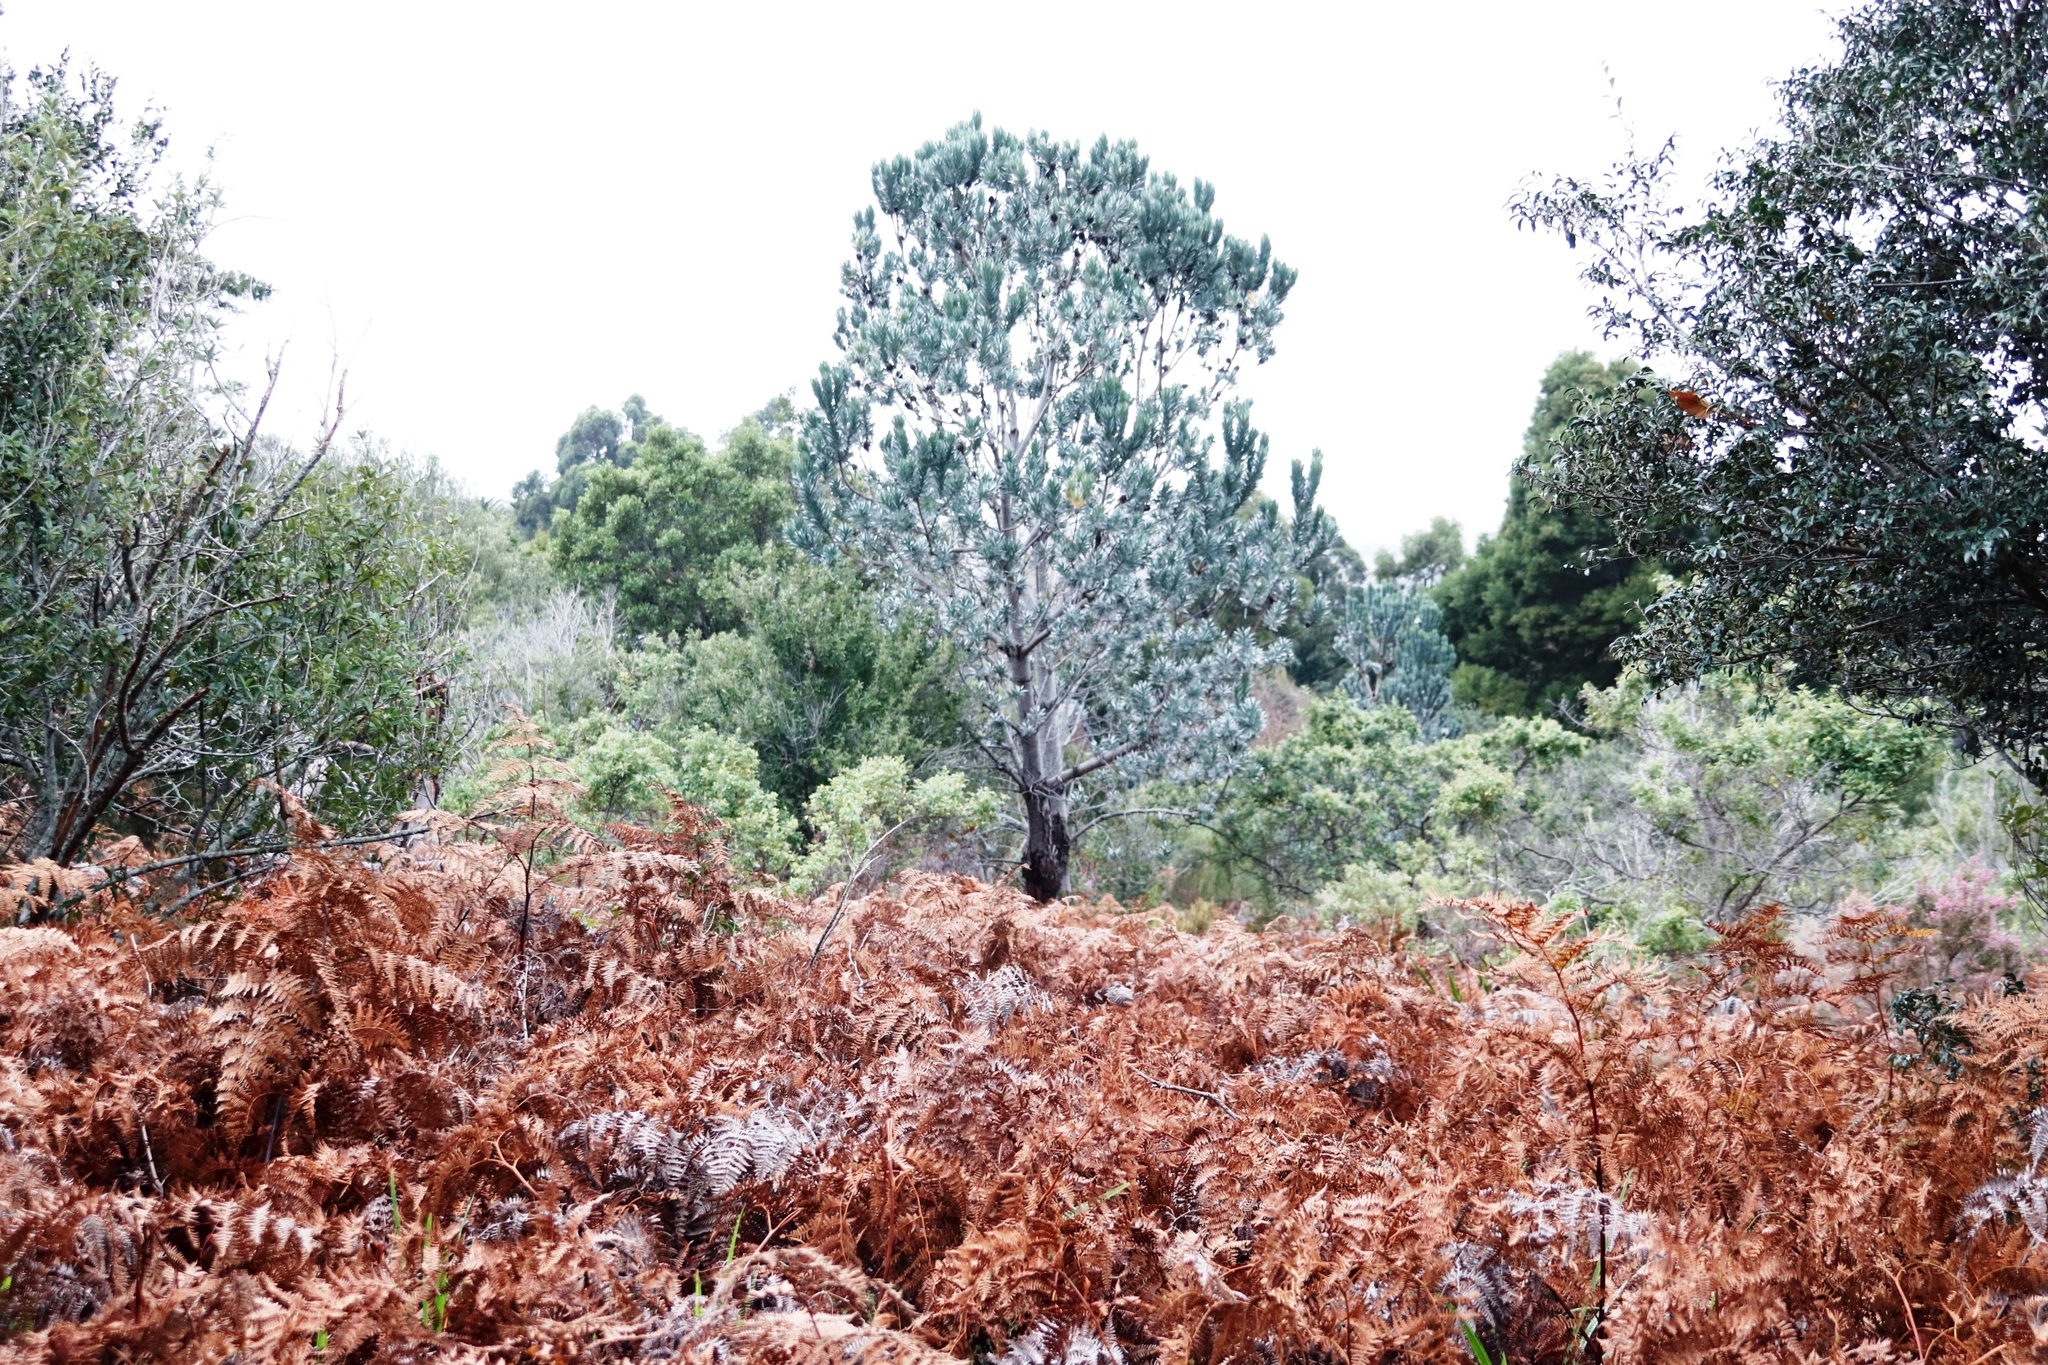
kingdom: Plantae
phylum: Tracheophyta
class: Magnoliopsida
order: Proteales
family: Proteaceae
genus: Leucadendron
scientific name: Leucadendron argenteum
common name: Cape silver tree
